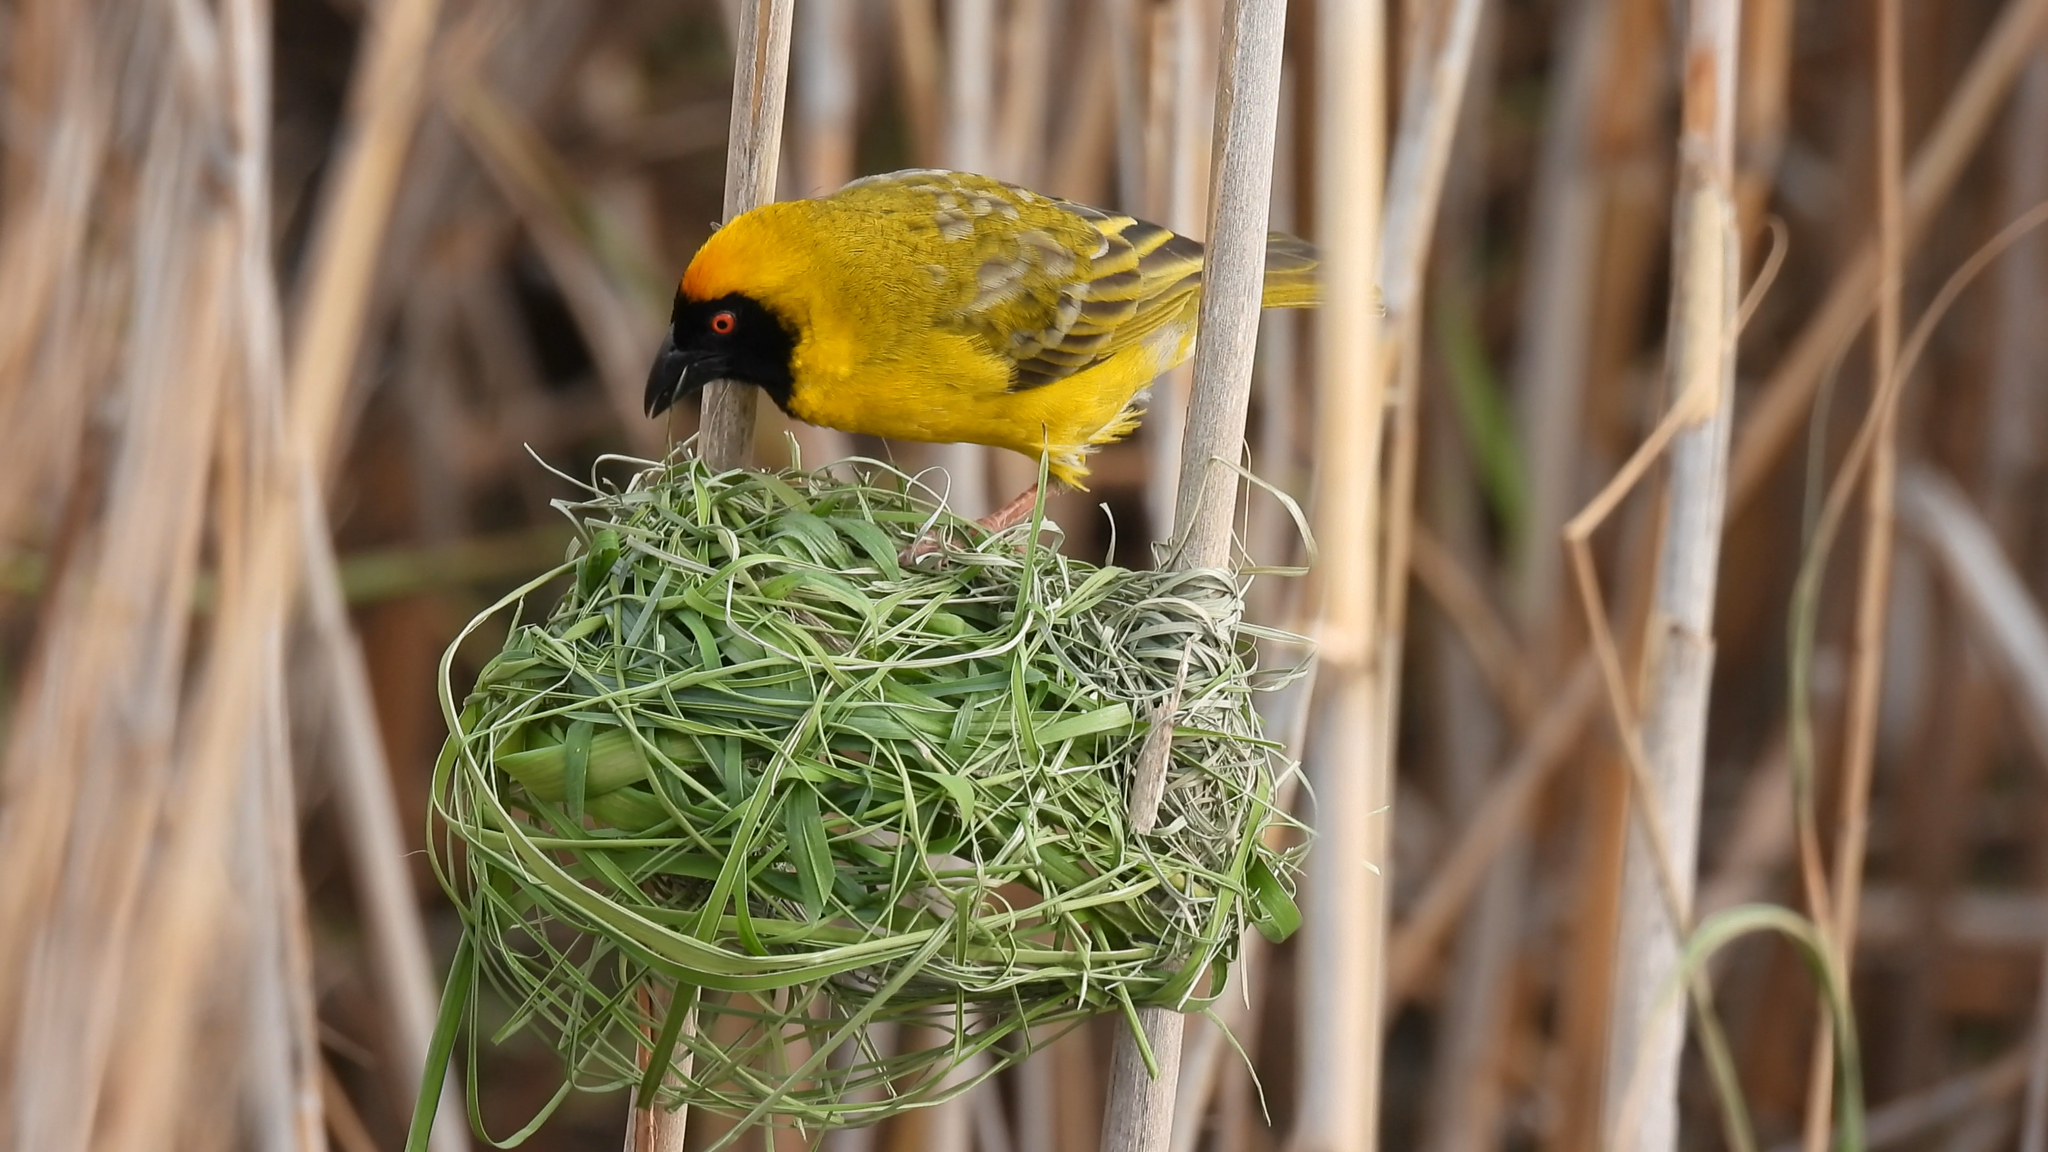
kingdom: Animalia
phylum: Chordata
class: Aves
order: Passeriformes
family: Ploceidae
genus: Ploceus
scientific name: Ploceus velatus
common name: Southern masked weaver
